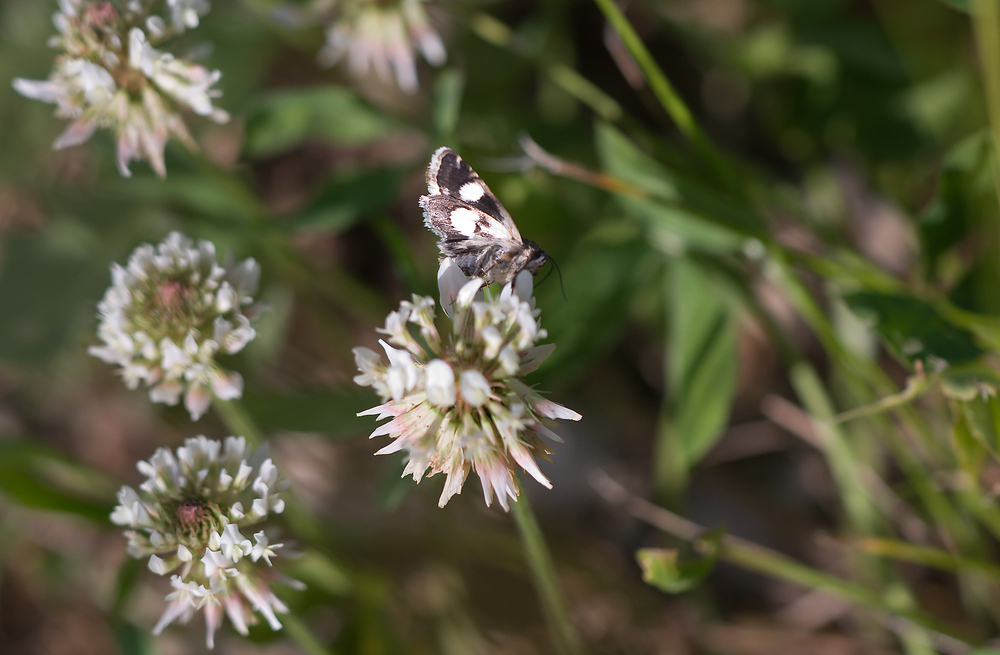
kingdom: Animalia
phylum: Arthropoda
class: Insecta
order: Lepidoptera
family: Erebidae
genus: Tyta
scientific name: Tyta luctuosa
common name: Four-spotted
